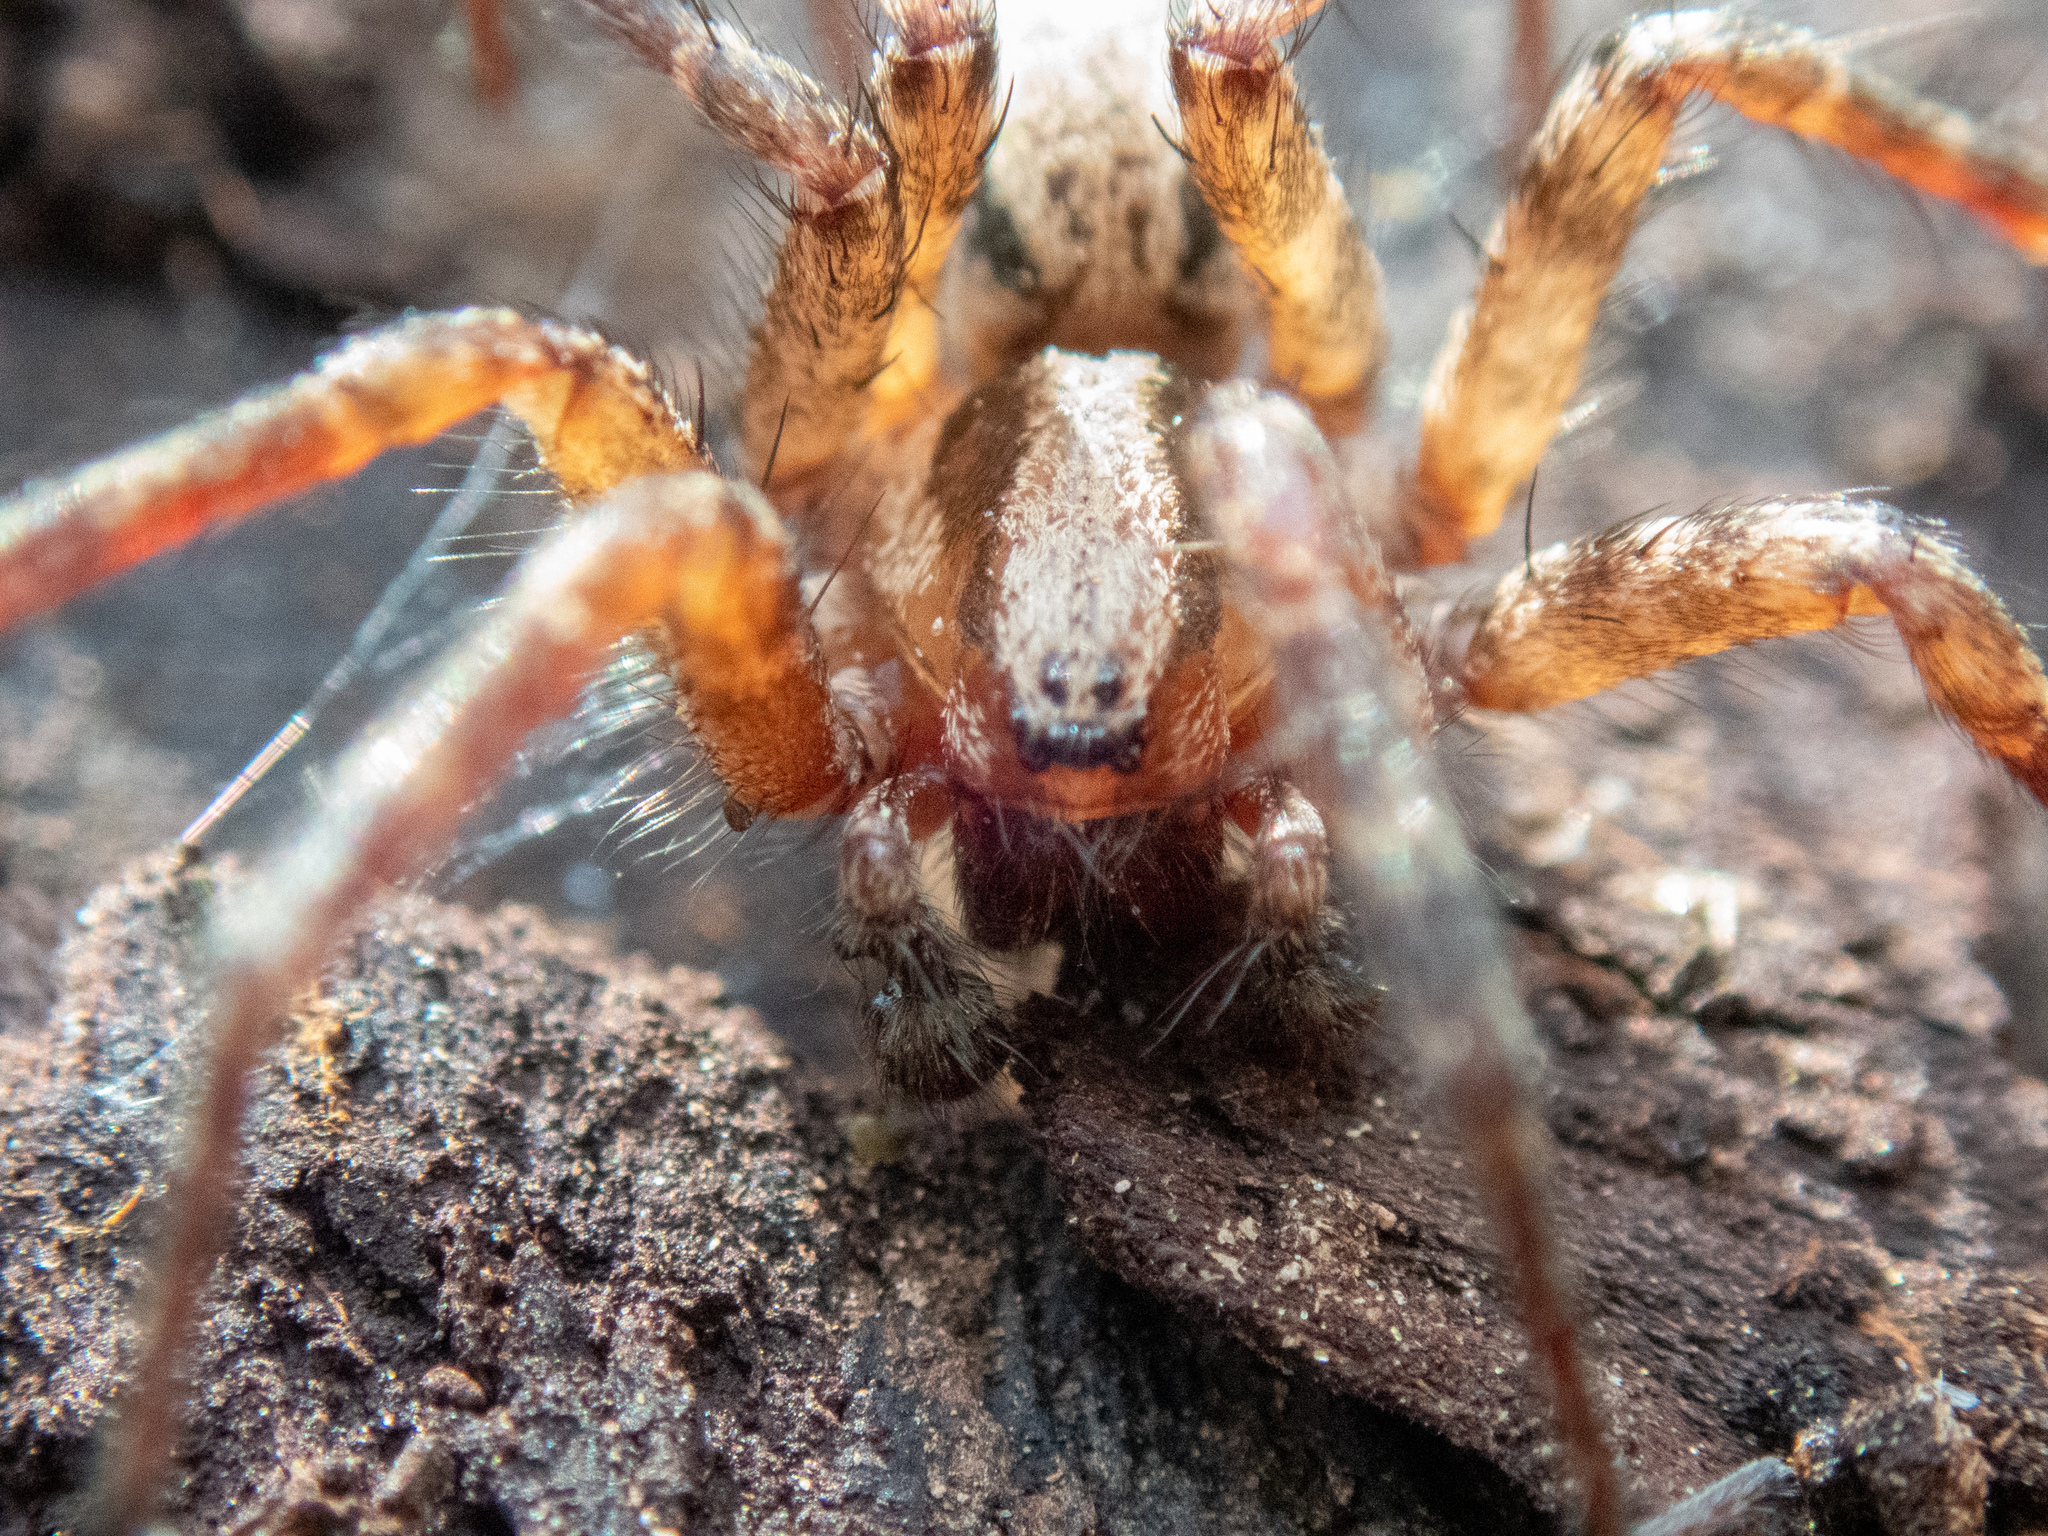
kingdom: Animalia
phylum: Arthropoda
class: Arachnida
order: Araneae
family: Agelenidae
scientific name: Agelenidae
